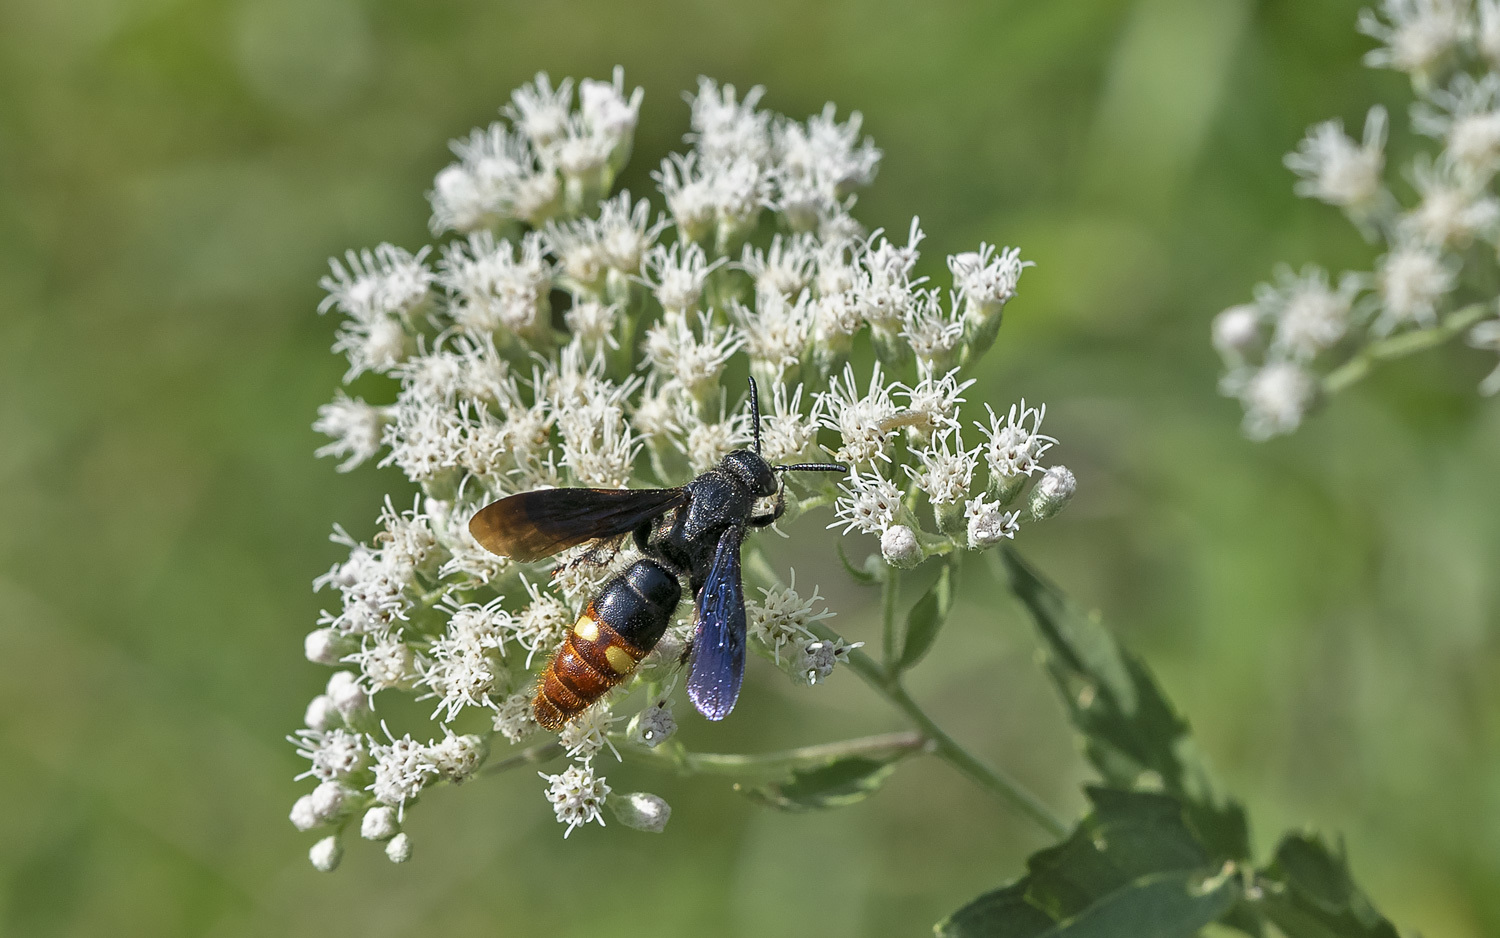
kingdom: Animalia
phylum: Arthropoda
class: Insecta
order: Hymenoptera
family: Scoliidae
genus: Scolia
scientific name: Scolia dubia
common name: Blue-winged scoliid wasp
